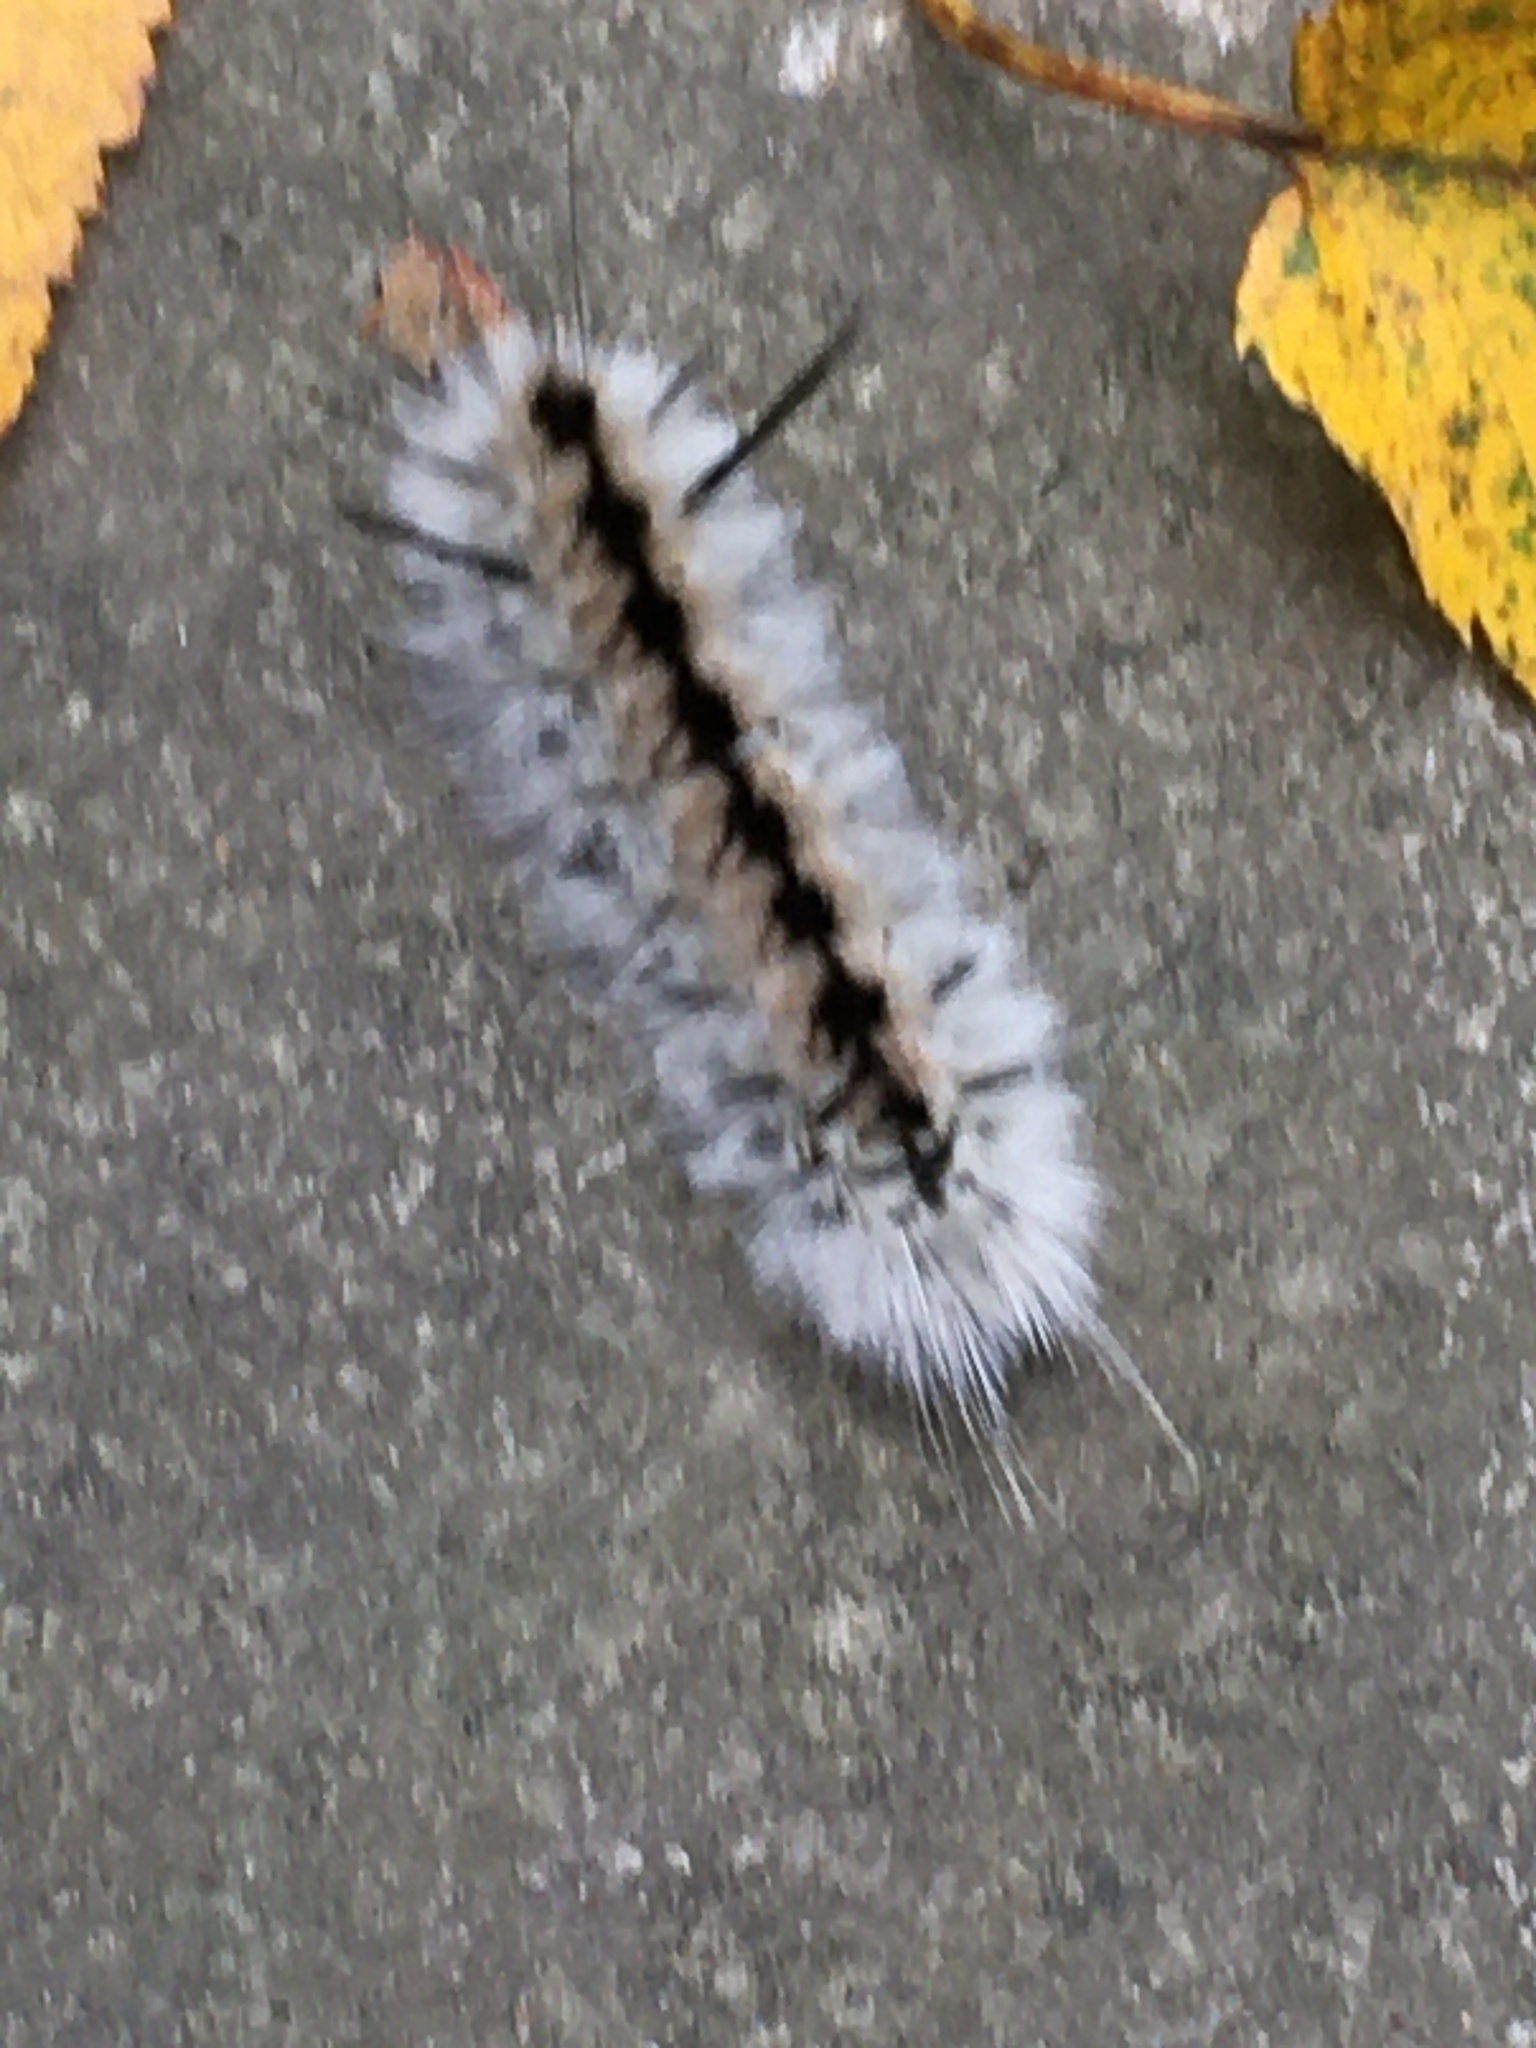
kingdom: Animalia
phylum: Arthropoda
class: Insecta
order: Lepidoptera
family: Erebidae
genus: Lophocampa
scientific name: Lophocampa caryae
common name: Hickory tussock moth
